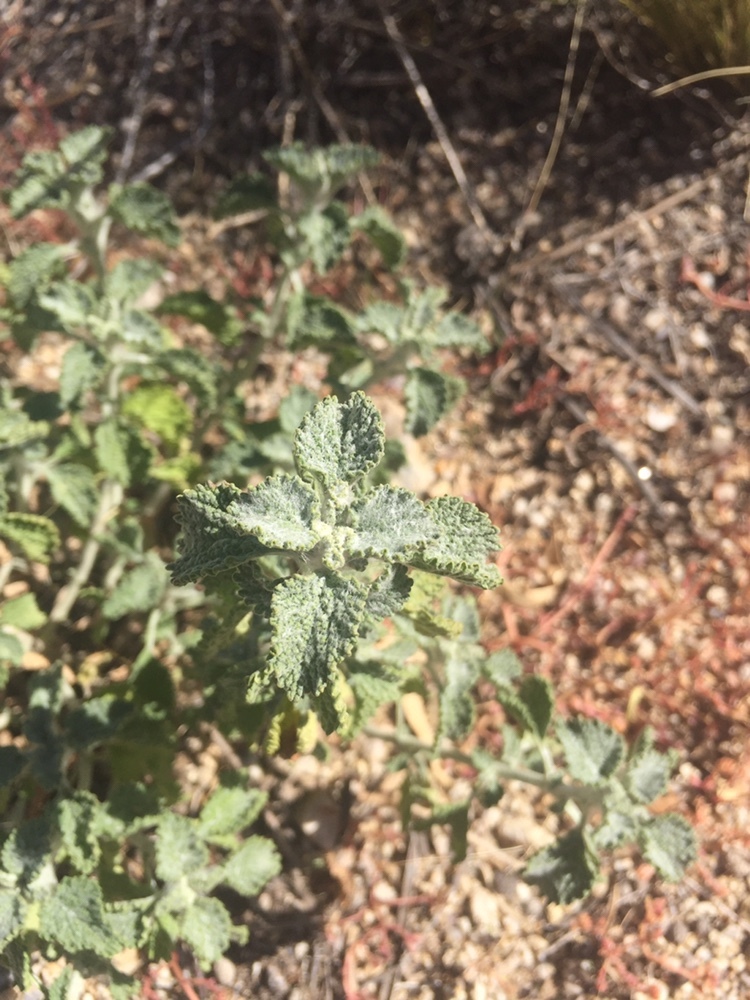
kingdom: Plantae
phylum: Tracheophyta
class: Magnoliopsida
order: Lamiales
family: Lamiaceae
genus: Marrubium
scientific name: Marrubium vulgare
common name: Horehound
